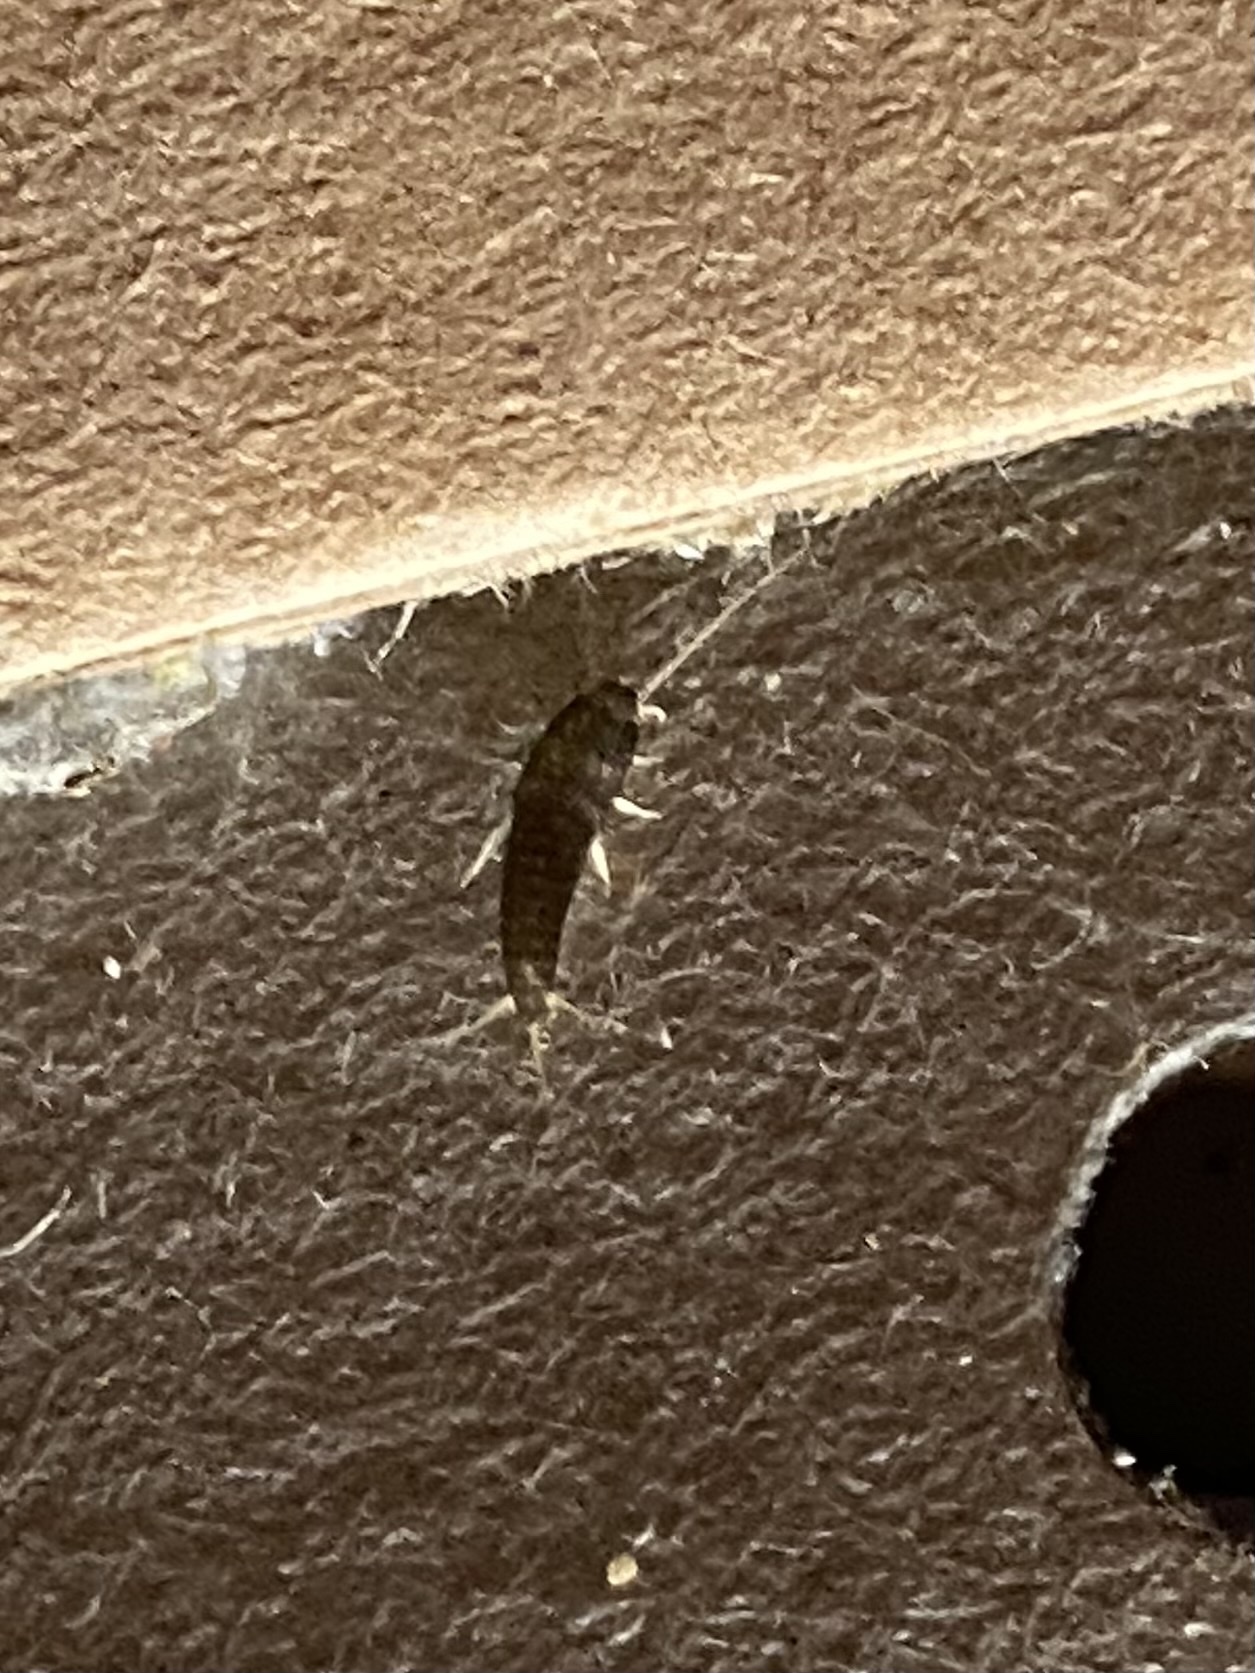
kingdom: Animalia
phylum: Arthropoda
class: Insecta
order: Zygentoma
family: Lepismatidae
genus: Lepisma
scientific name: Lepisma saccharinum
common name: Silverfish
